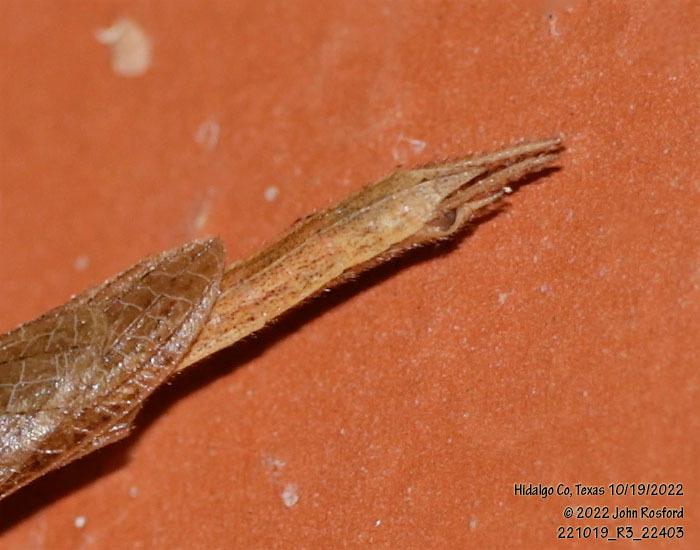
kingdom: Animalia
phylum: Arthropoda
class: Insecta
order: Mantodea
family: Thespidae
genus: Bistanta
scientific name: Bistanta campestris
